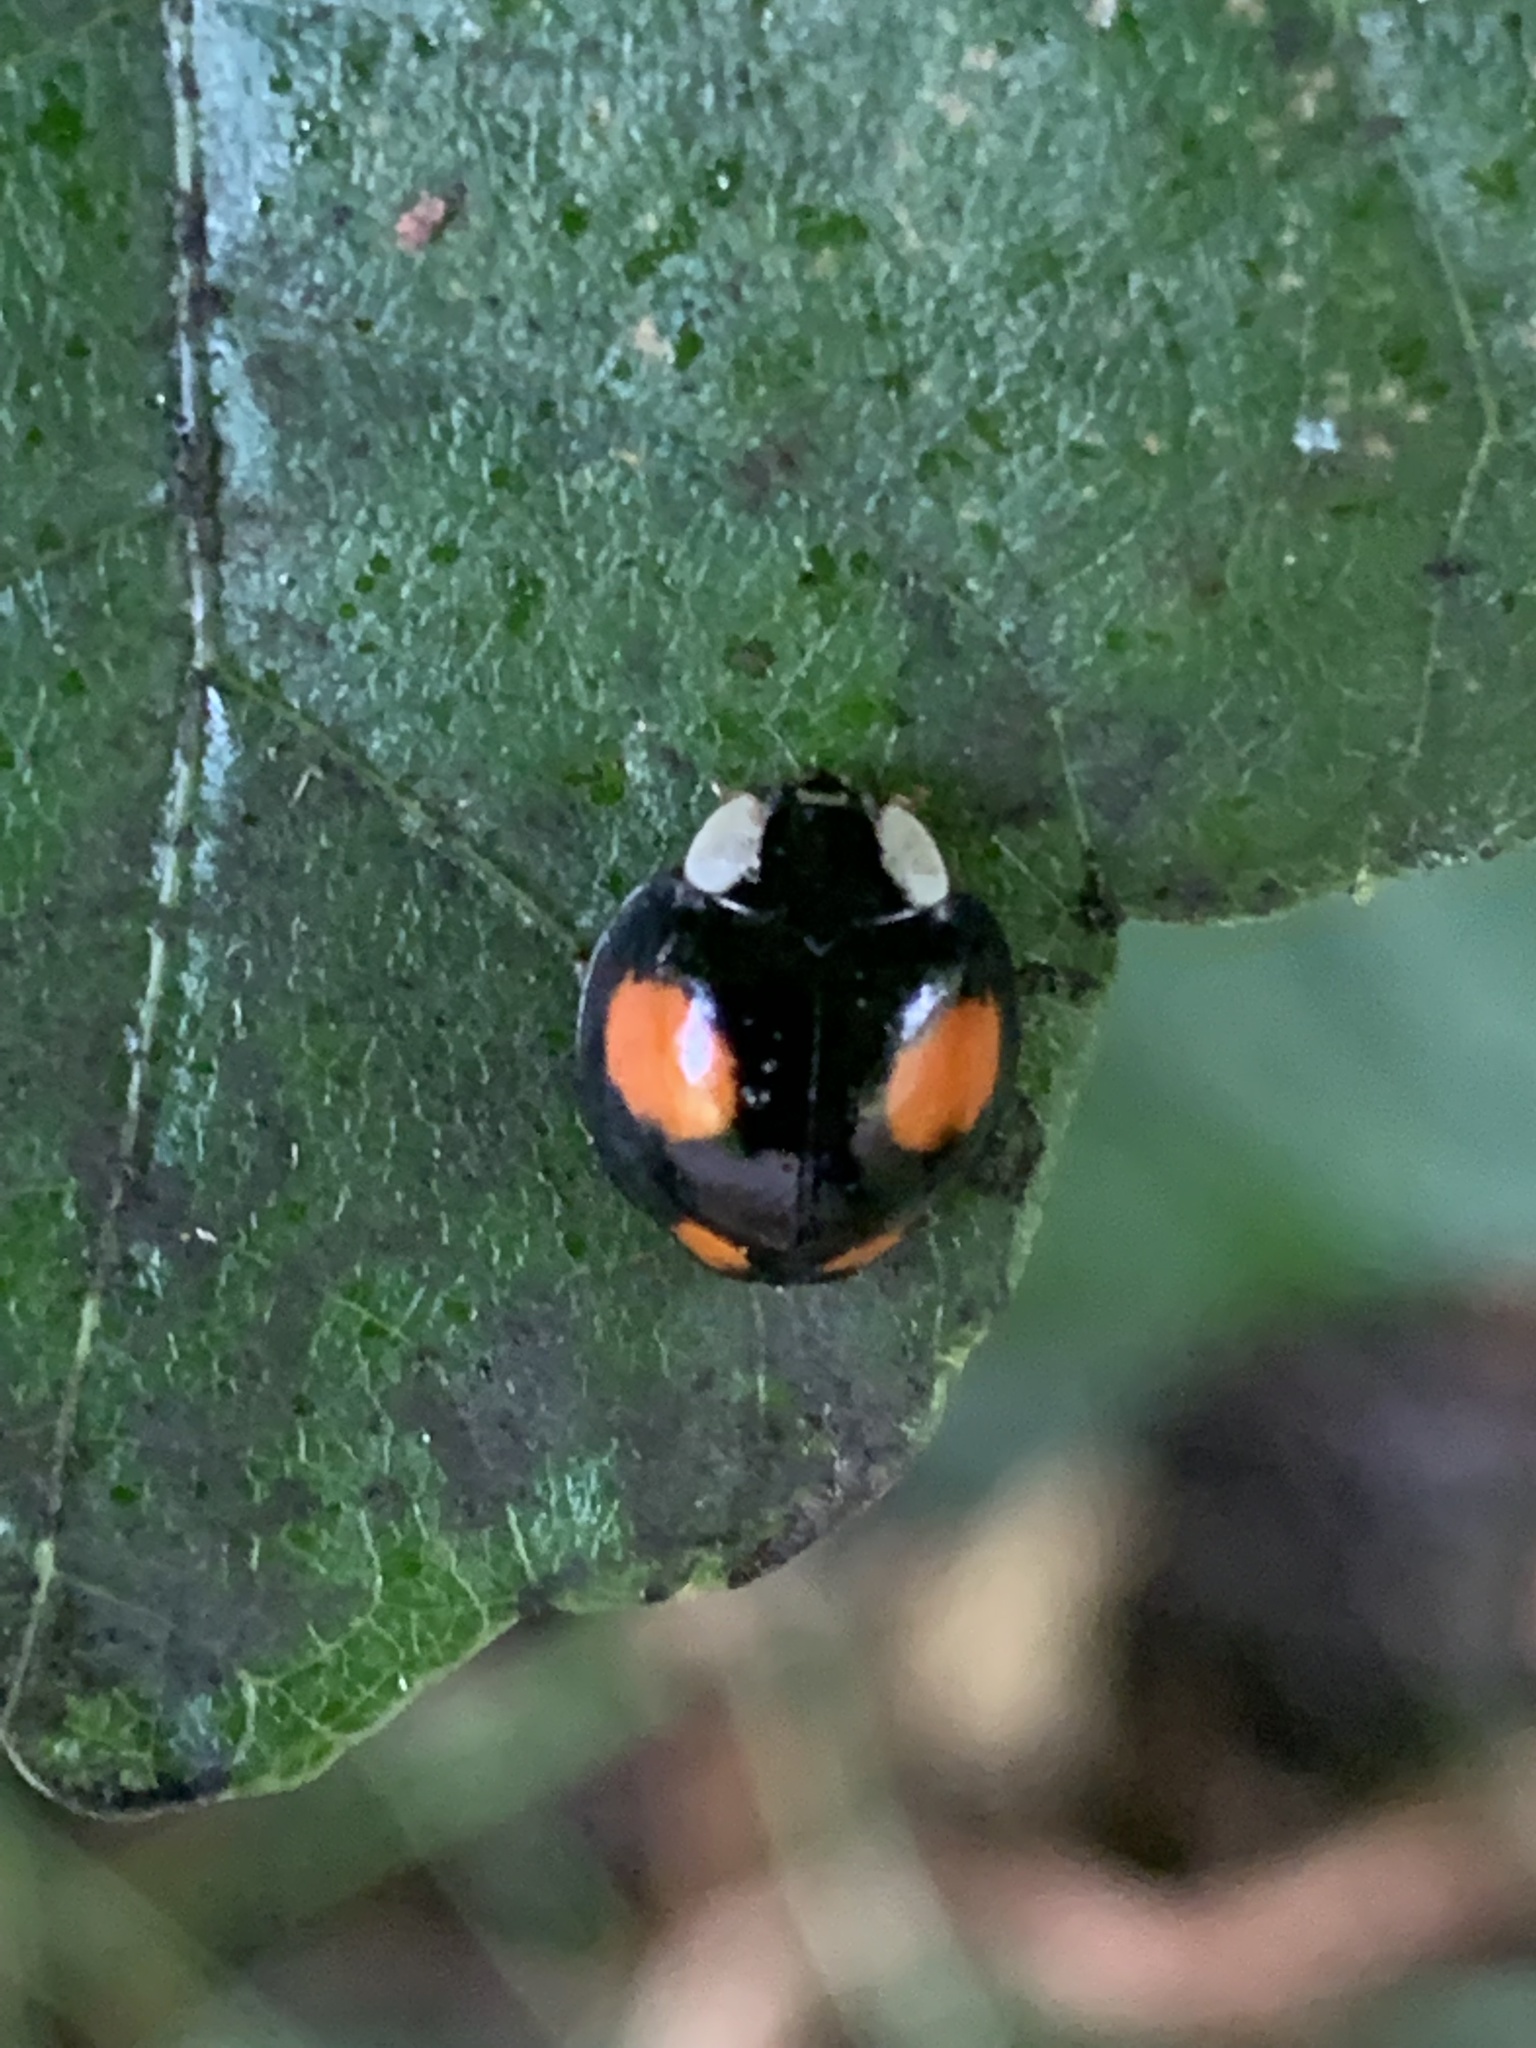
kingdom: Animalia
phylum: Arthropoda
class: Insecta
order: Coleoptera
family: Coccinellidae
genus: Harmonia
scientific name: Harmonia axyridis
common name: Harlequin ladybird
